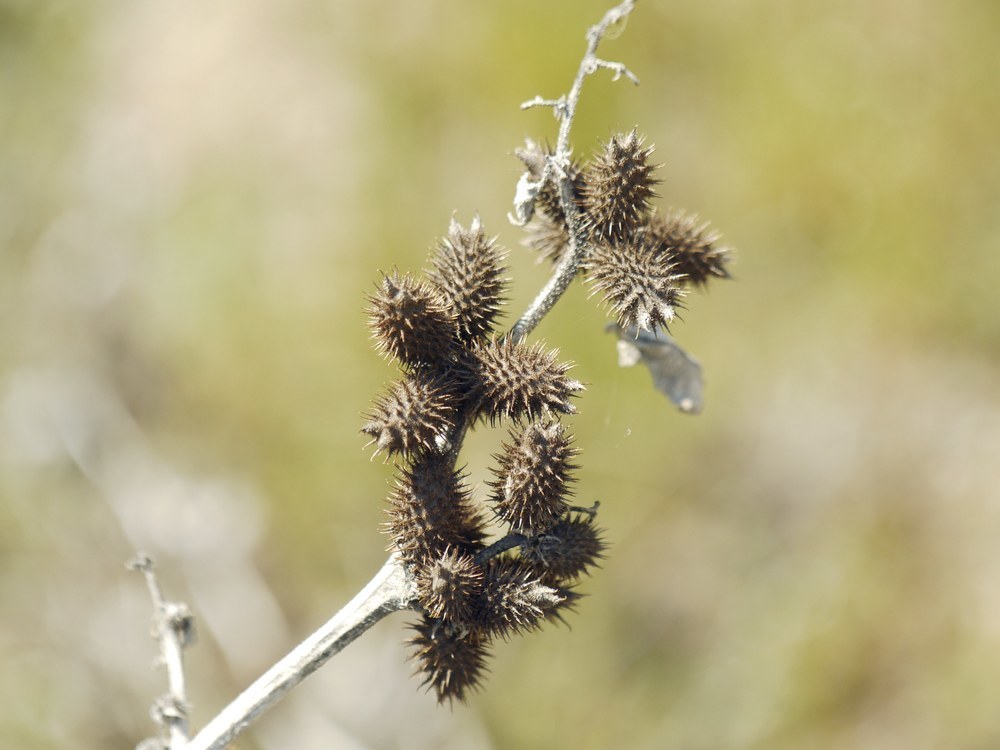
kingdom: Plantae
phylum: Tracheophyta
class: Magnoliopsida
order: Asterales
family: Asteraceae
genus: Xanthium
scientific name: Xanthium strumarium
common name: Rough cocklebur
